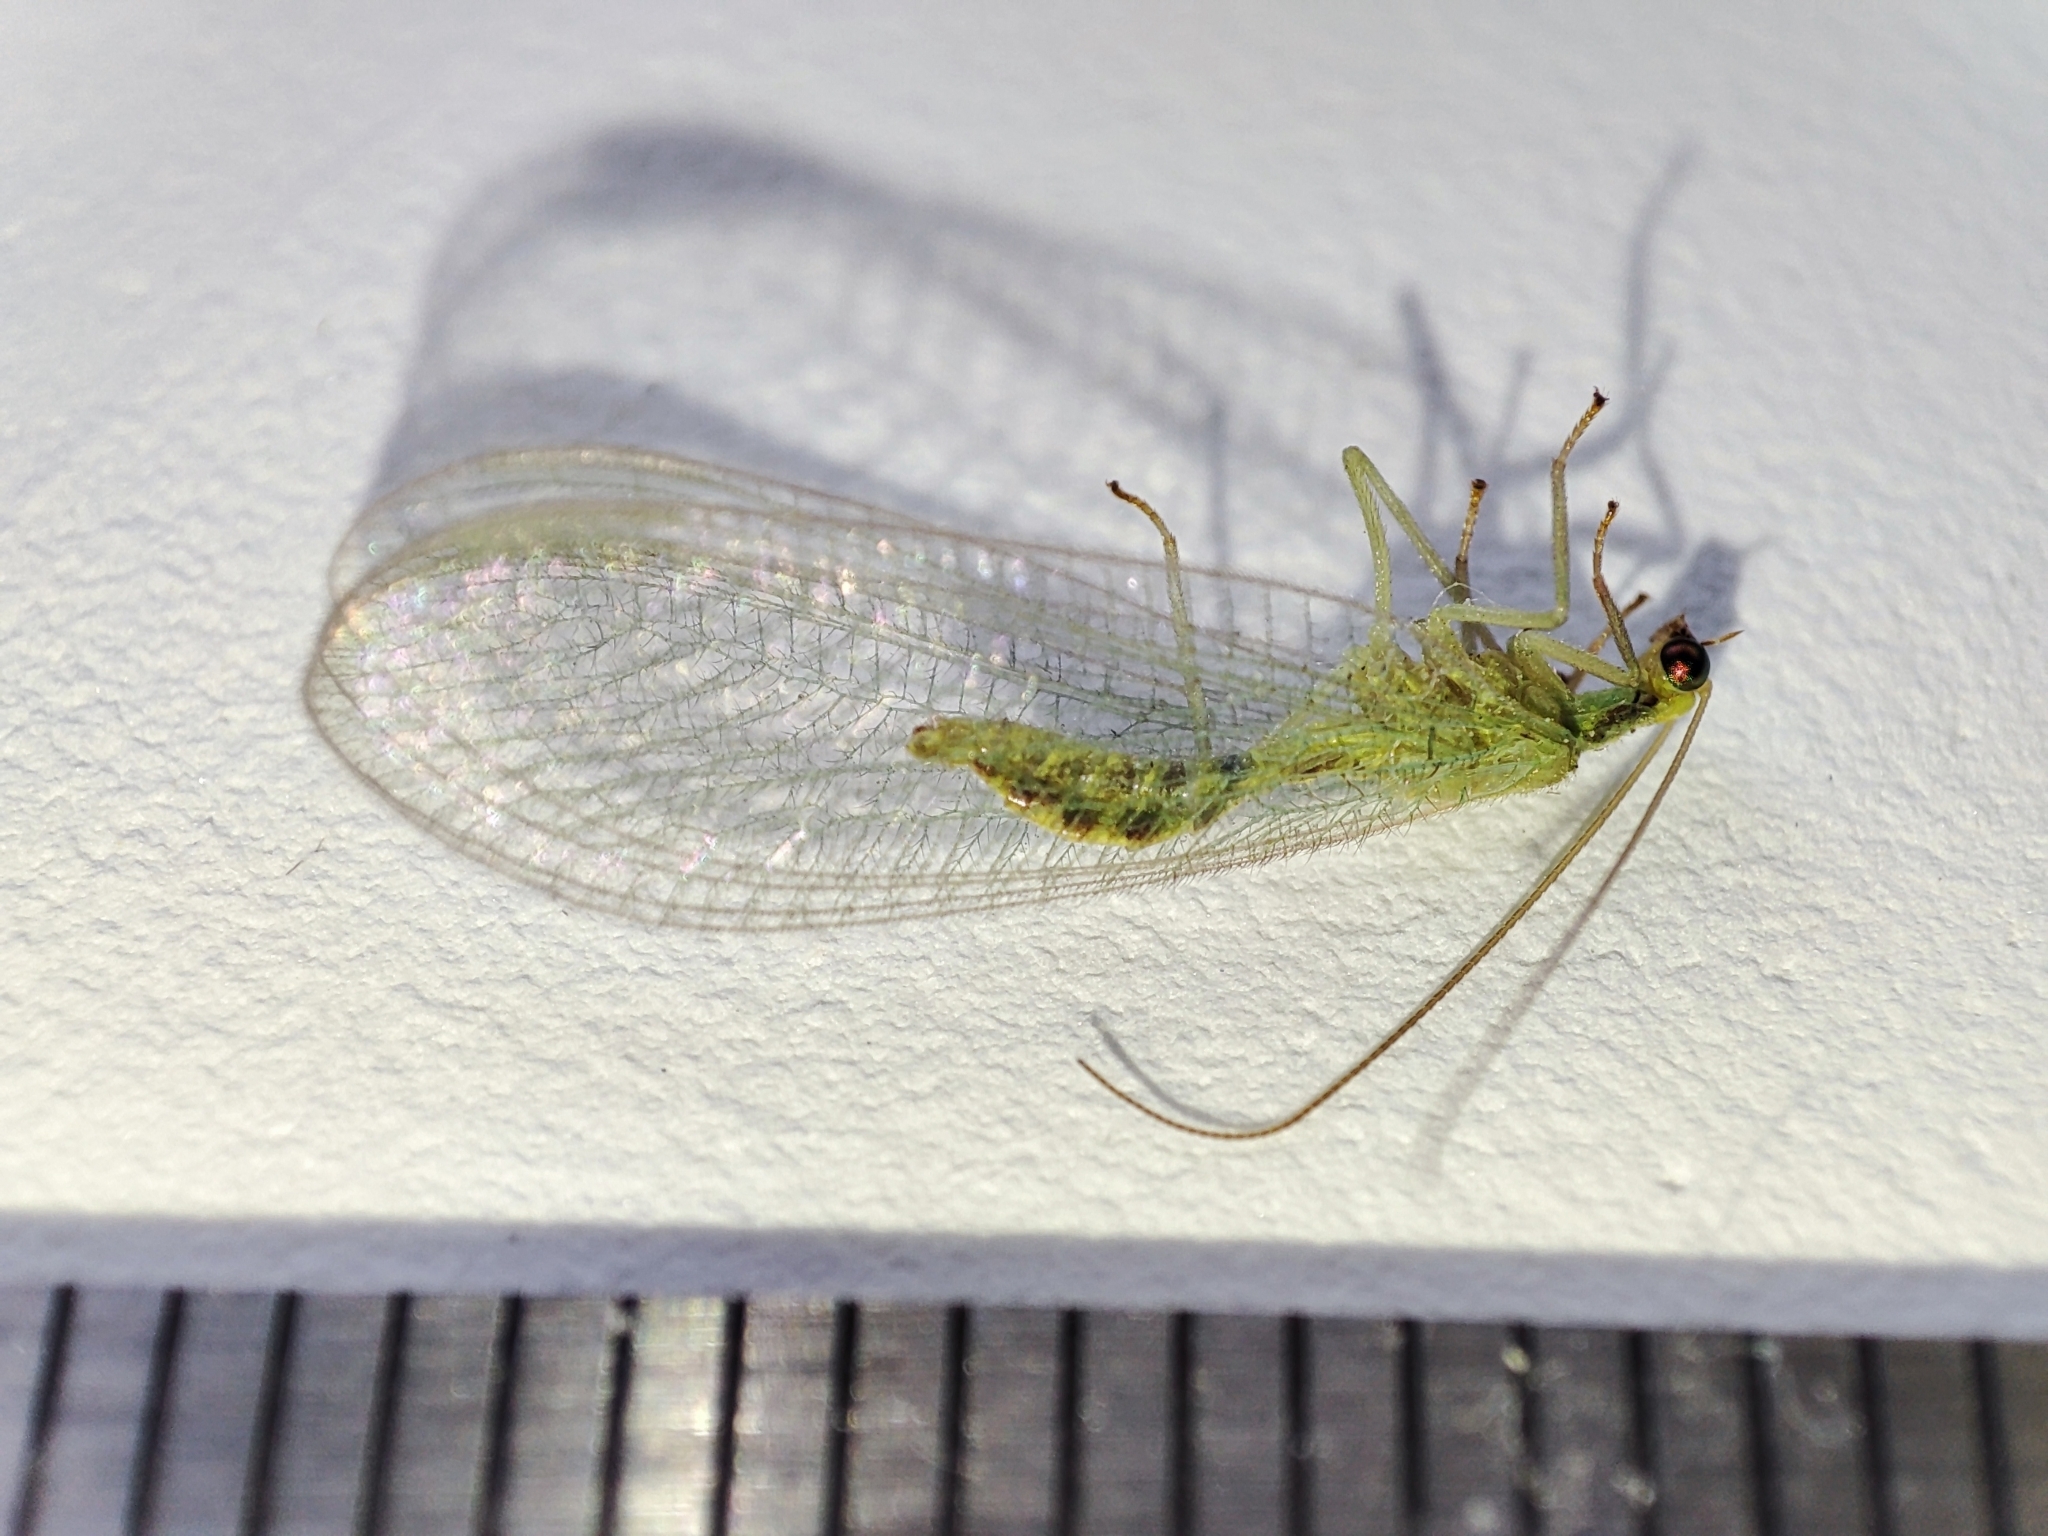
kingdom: Animalia
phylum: Arthropoda
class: Insecta
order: Neuroptera
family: Chrysopidae
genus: Chrysoperla
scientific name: Chrysoperla
